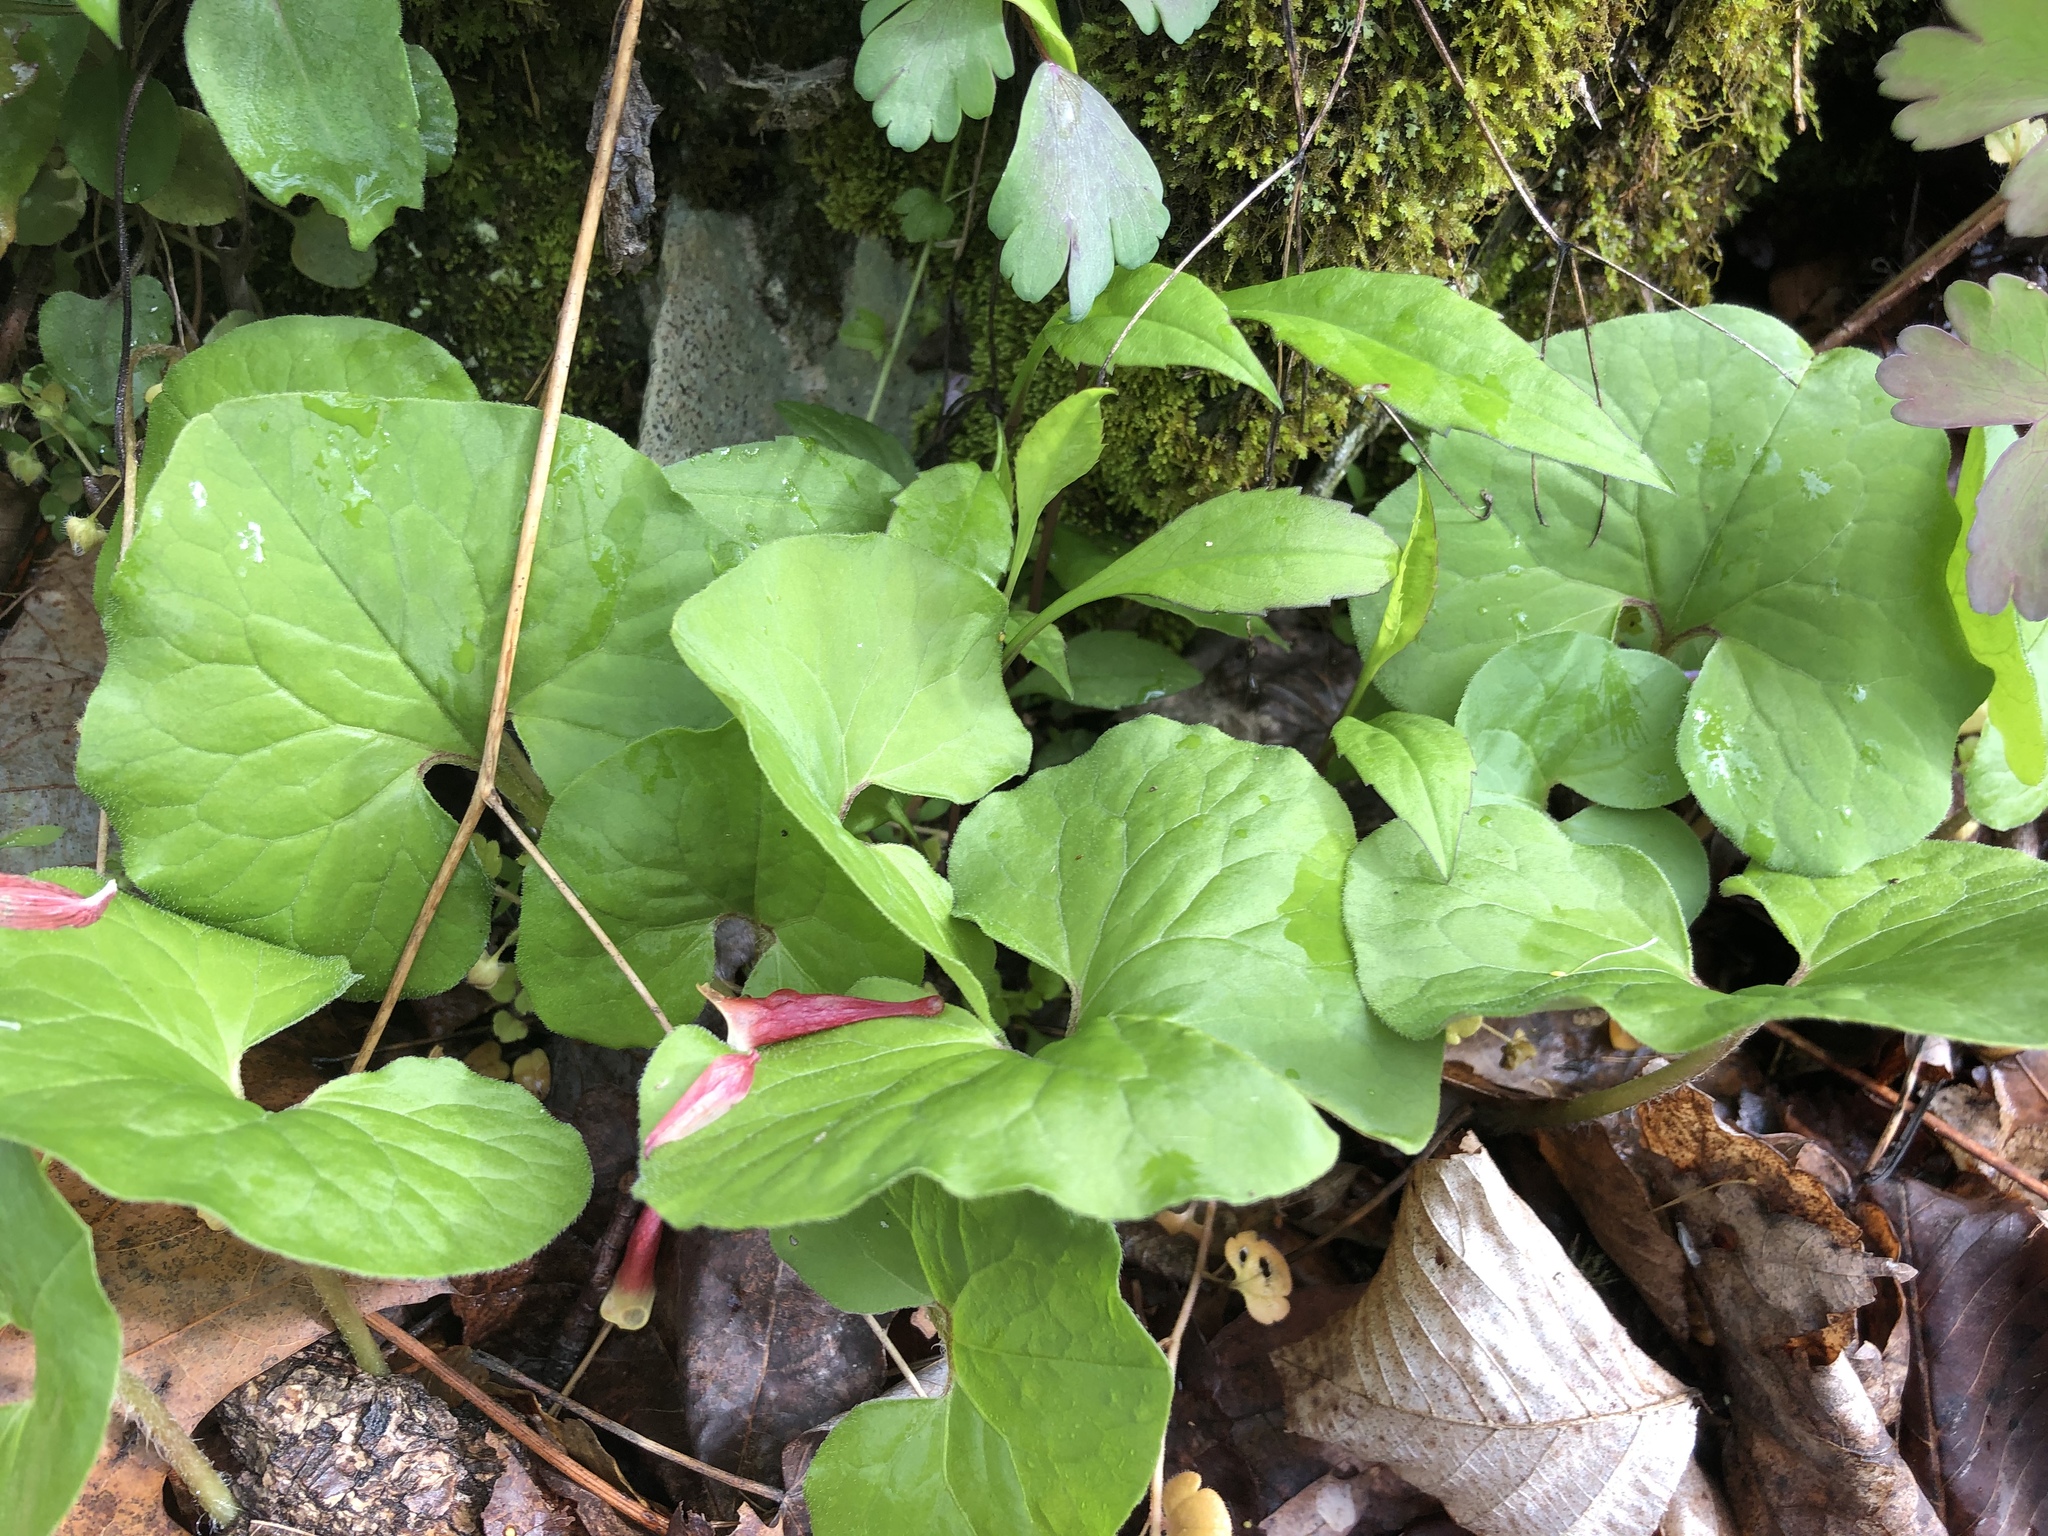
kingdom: Plantae
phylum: Tracheophyta
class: Magnoliopsida
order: Piperales
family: Aristolochiaceae
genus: Asarum
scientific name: Asarum canadense
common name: Wild ginger
